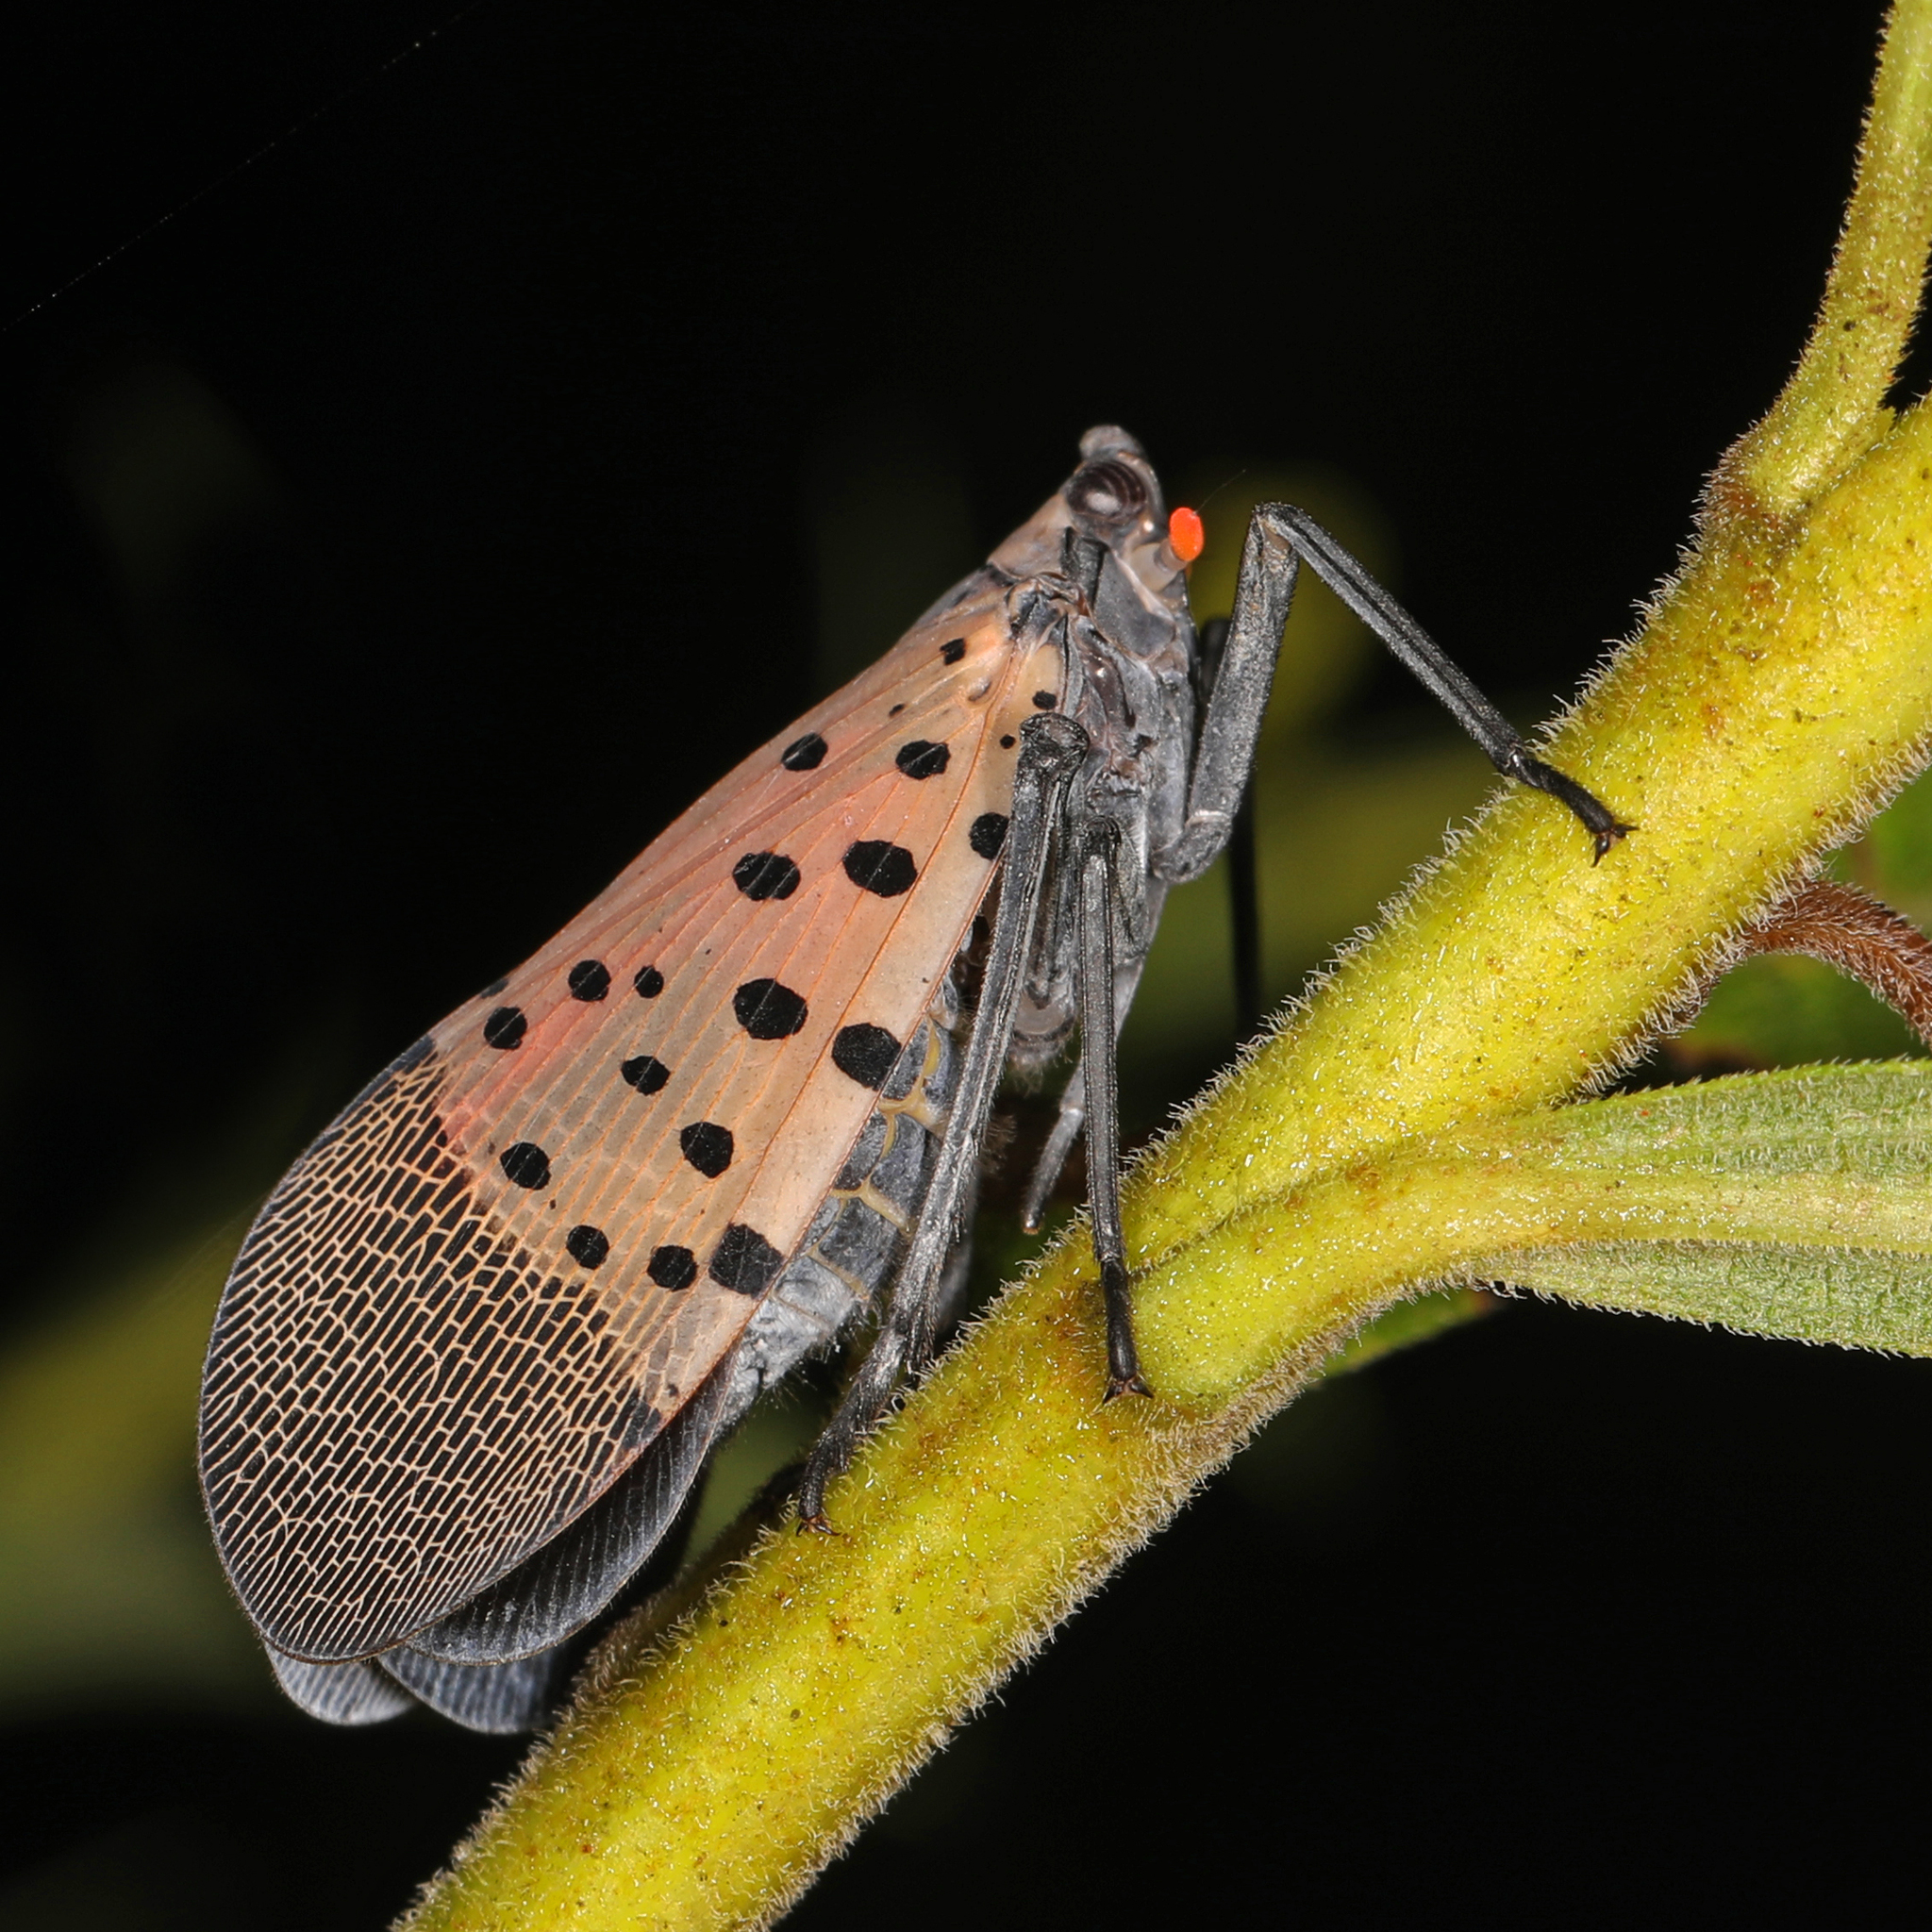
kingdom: Animalia
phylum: Arthropoda
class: Insecta
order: Hemiptera
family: Fulgoridae
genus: Lycorma
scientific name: Lycorma delicatula
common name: Spotted lanternfly
